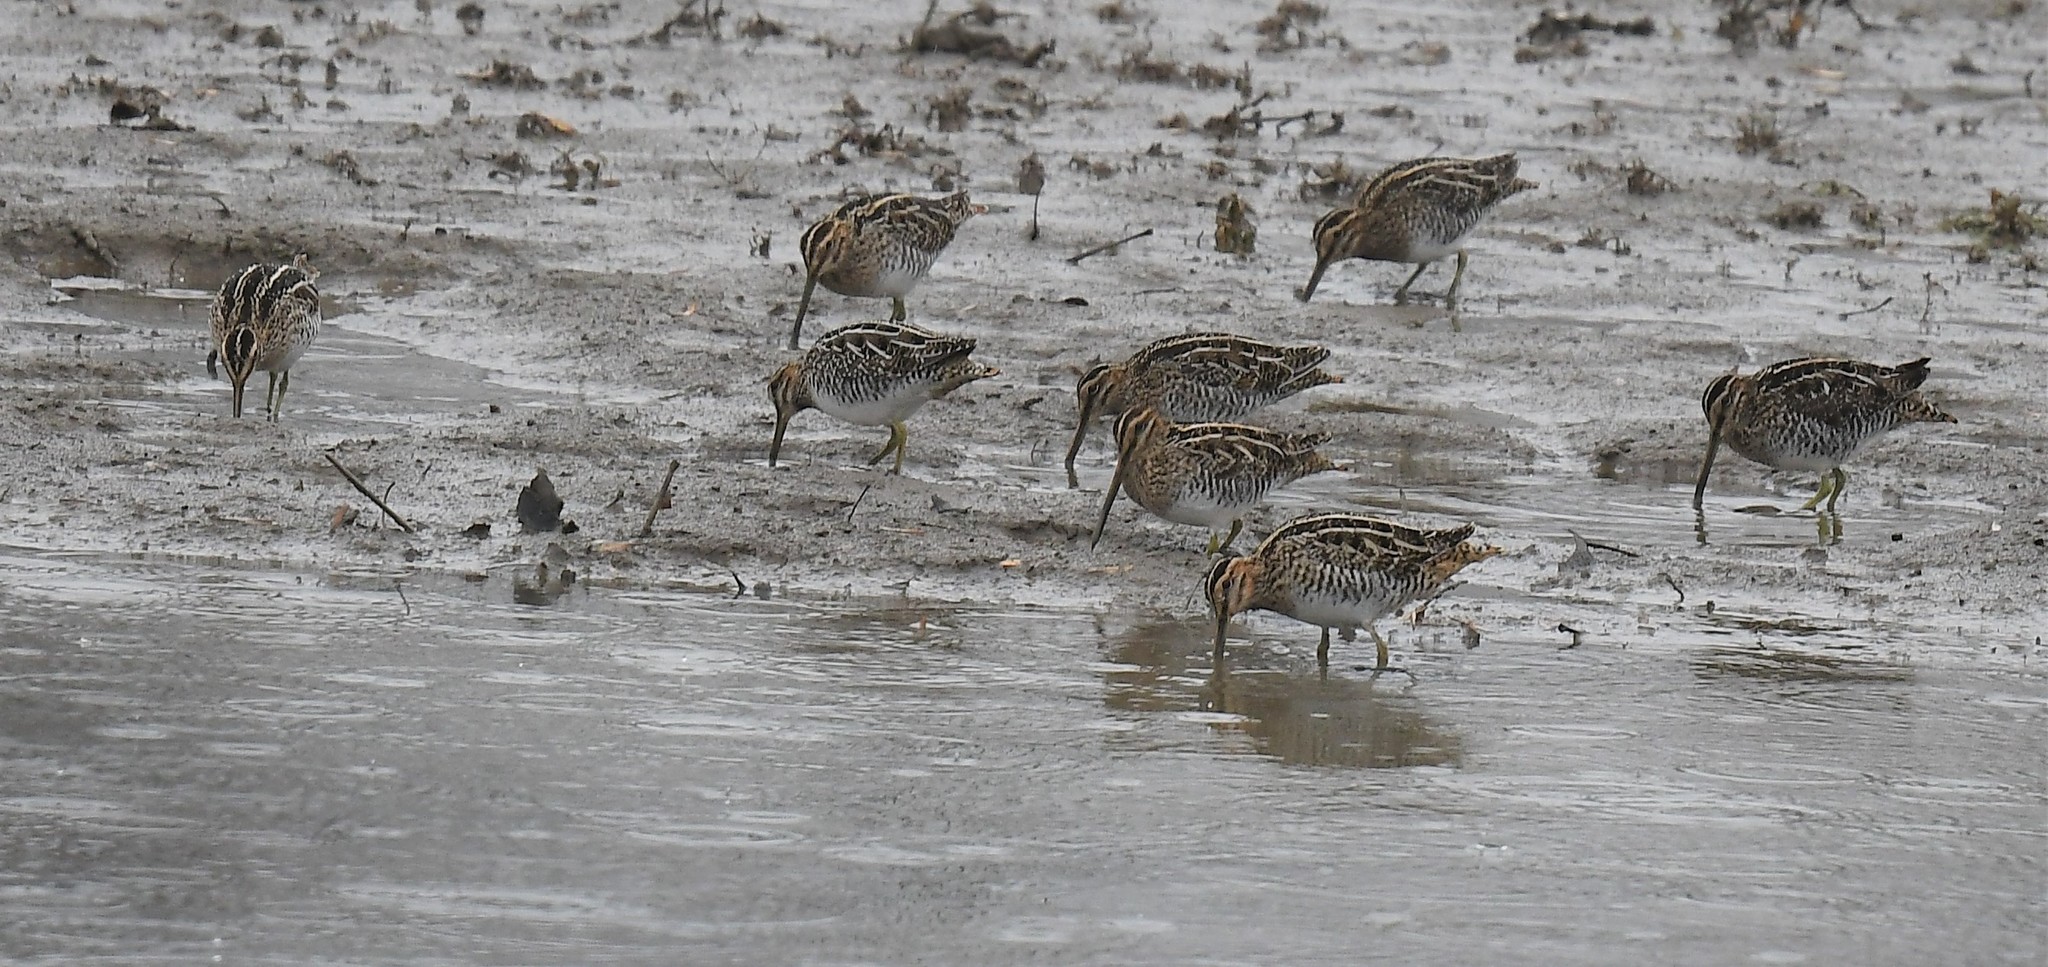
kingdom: Animalia
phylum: Chordata
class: Aves
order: Charadriiformes
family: Scolopacidae
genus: Gallinago
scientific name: Gallinago delicata
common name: Wilson's snipe
